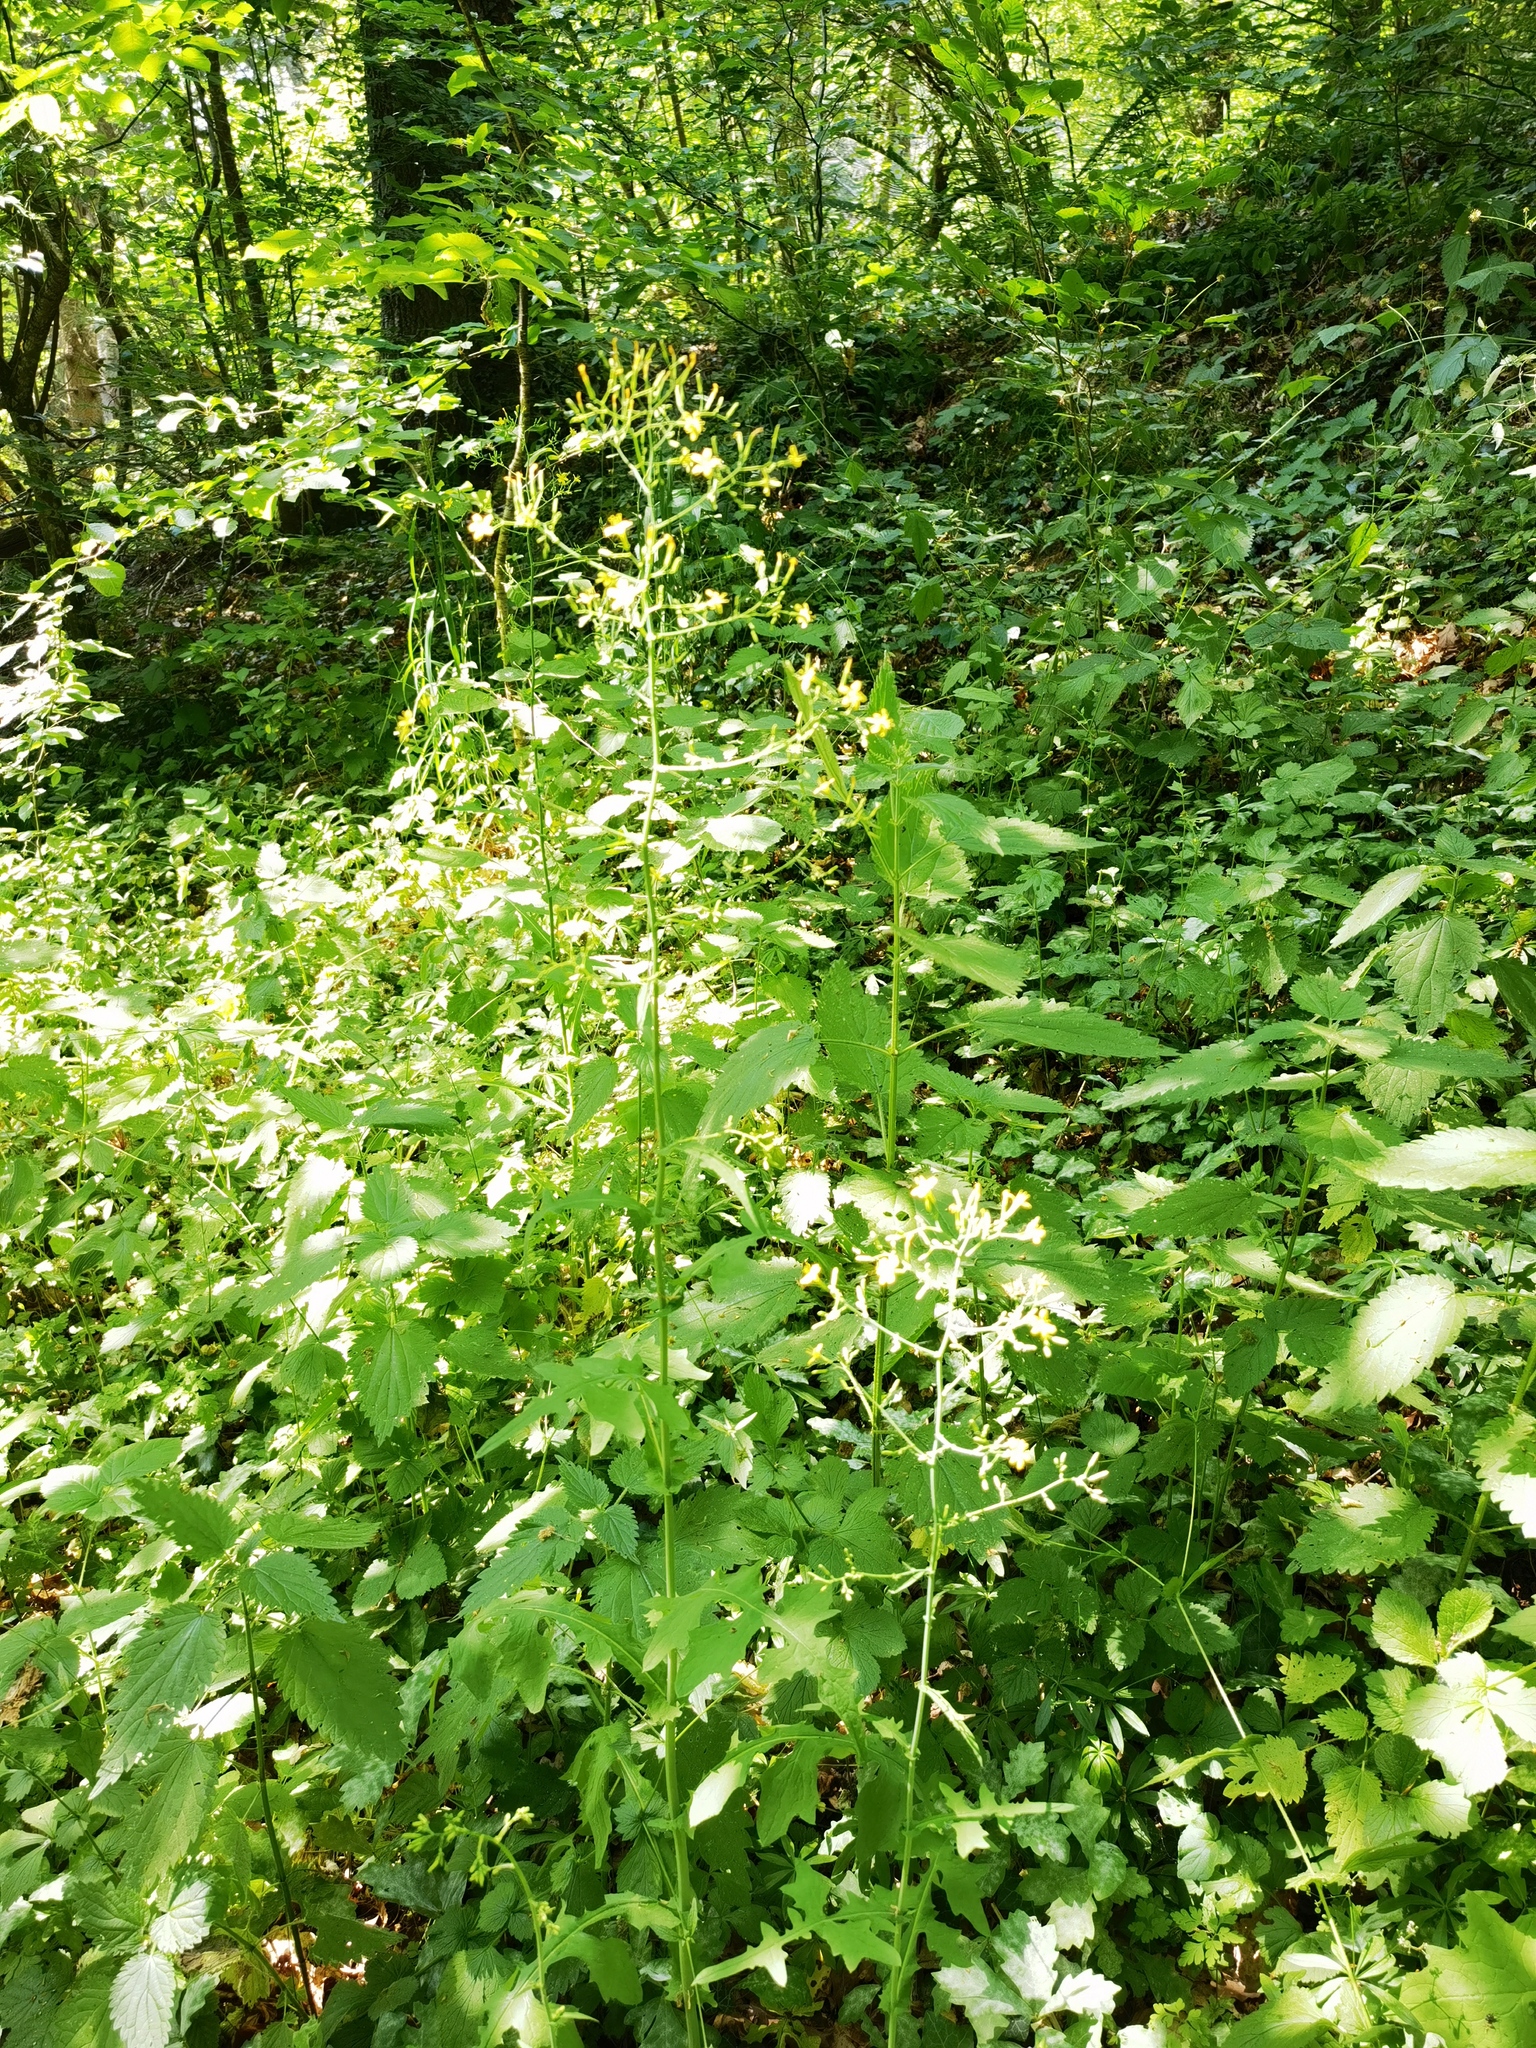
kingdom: Plantae
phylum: Tracheophyta
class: Magnoliopsida
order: Asterales
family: Asteraceae
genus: Mycelis
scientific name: Mycelis muralis
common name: Wall lettuce
